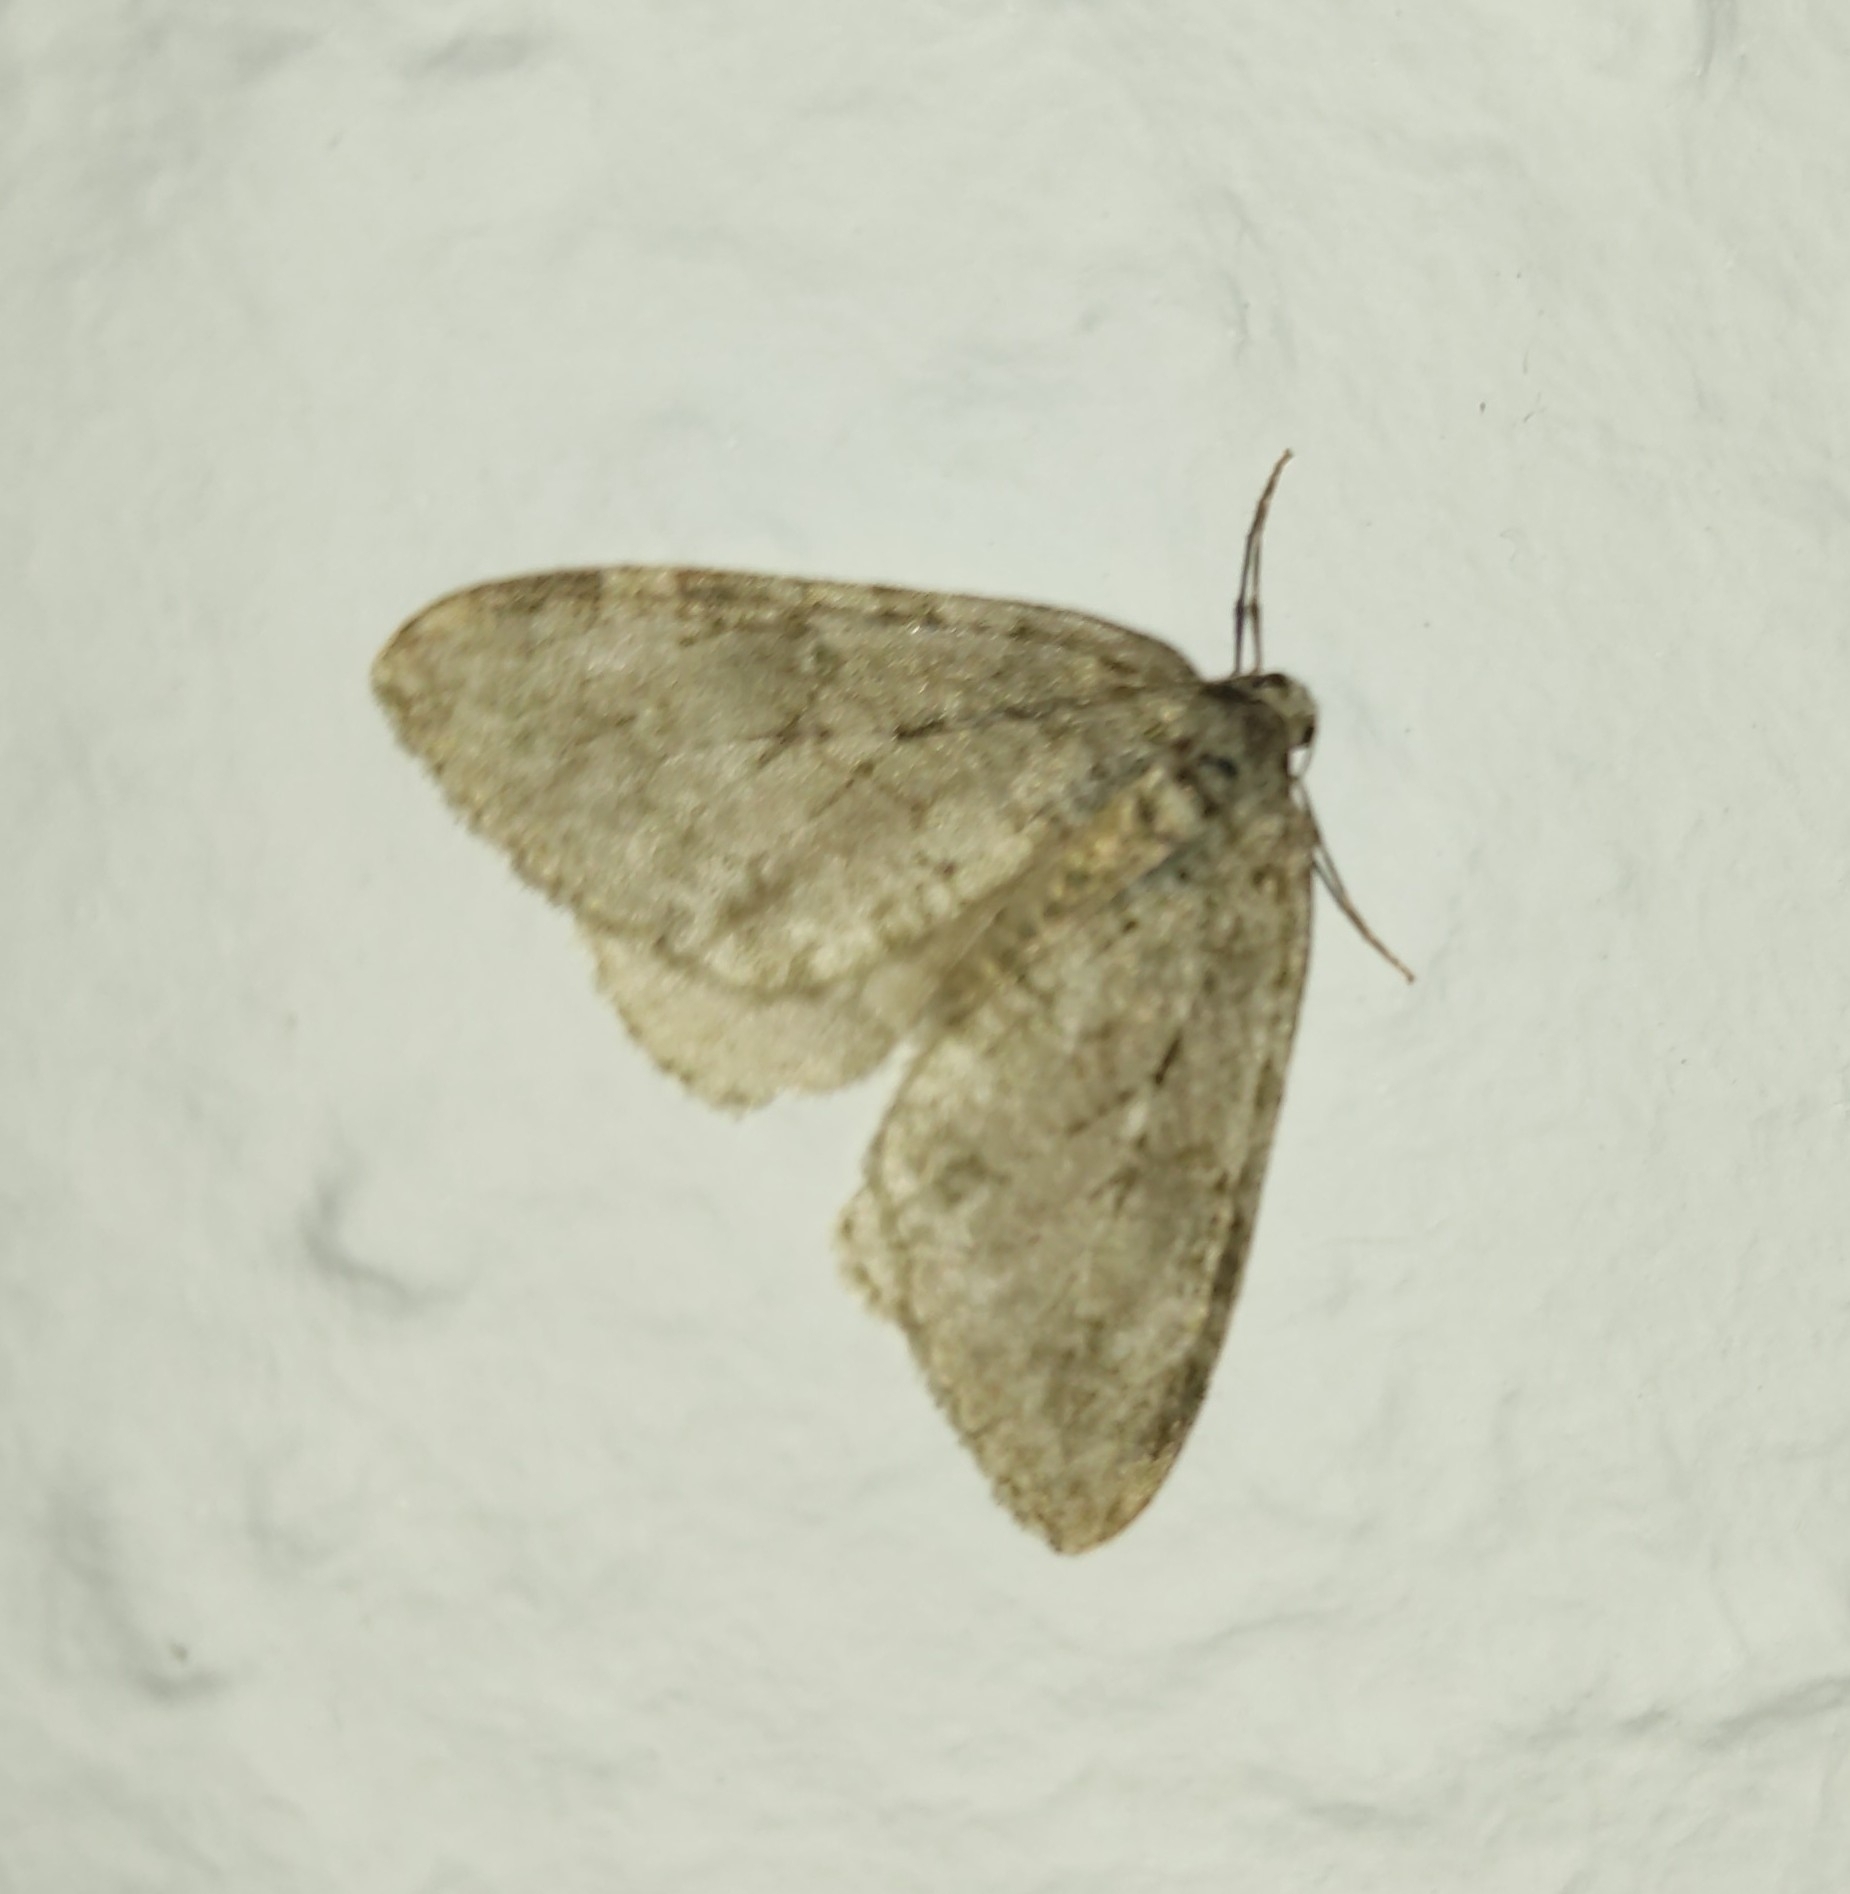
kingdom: Animalia
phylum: Arthropoda
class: Insecta
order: Lepidoptera
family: Geometridae
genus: Operophtera
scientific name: Operophtera brumata
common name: Winter moth
